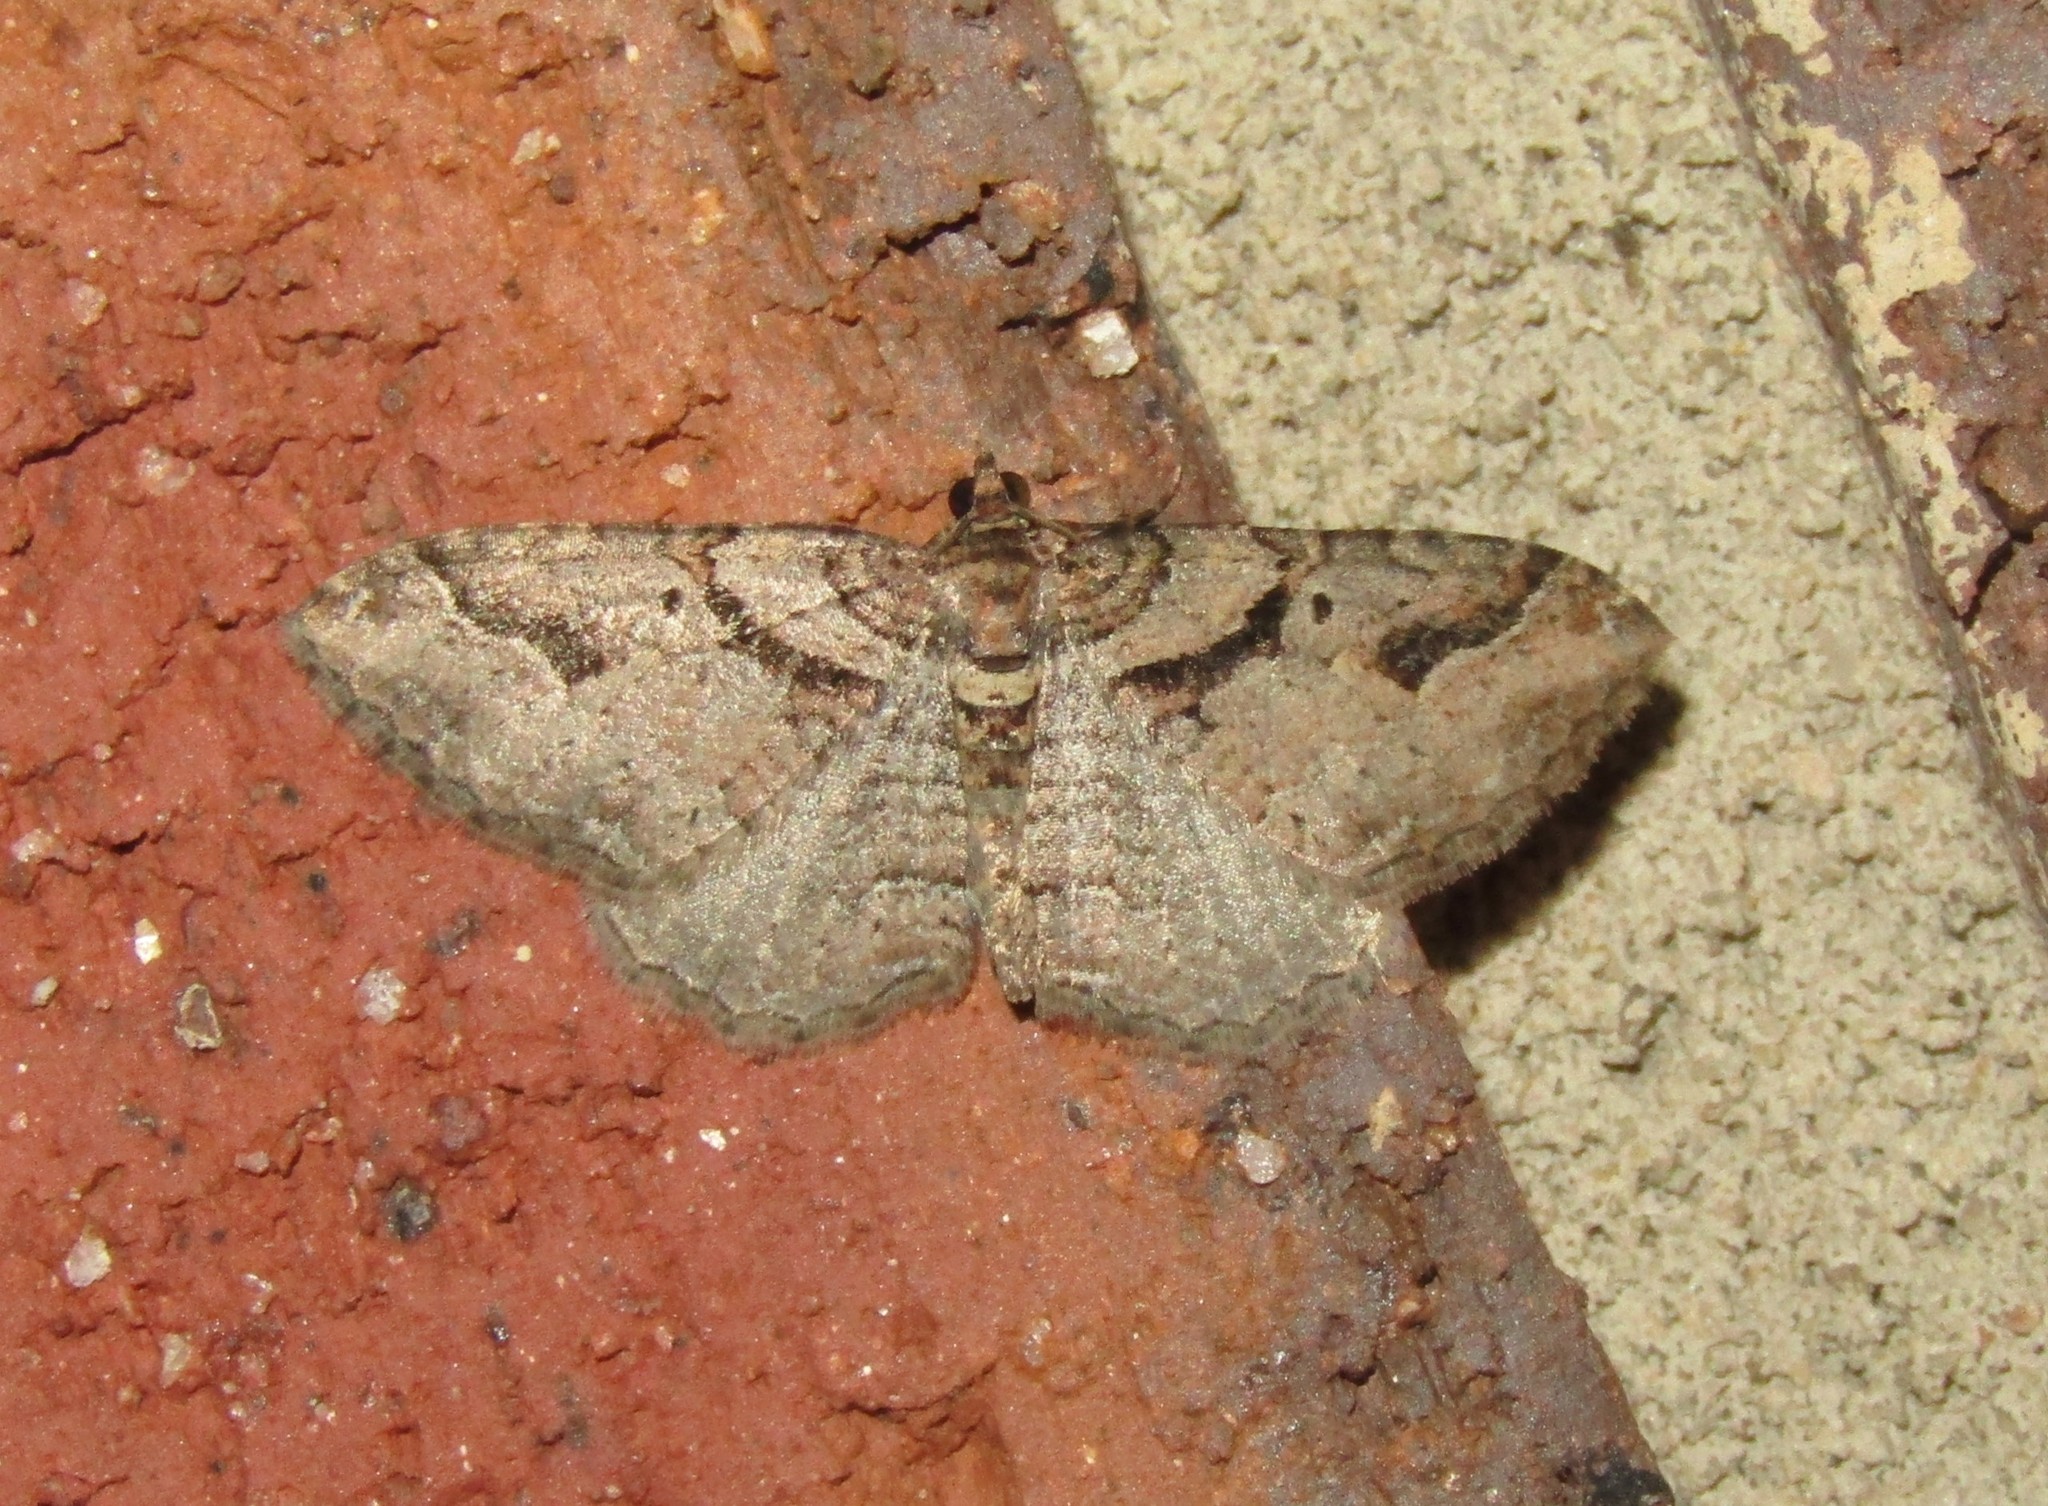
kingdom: Animalia
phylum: Arthropoda
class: Insecta
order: Lepidoptera
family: Geometridae
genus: Costaconvexa
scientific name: Costaconvexa centrostrigaria
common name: Bent-line carpet
